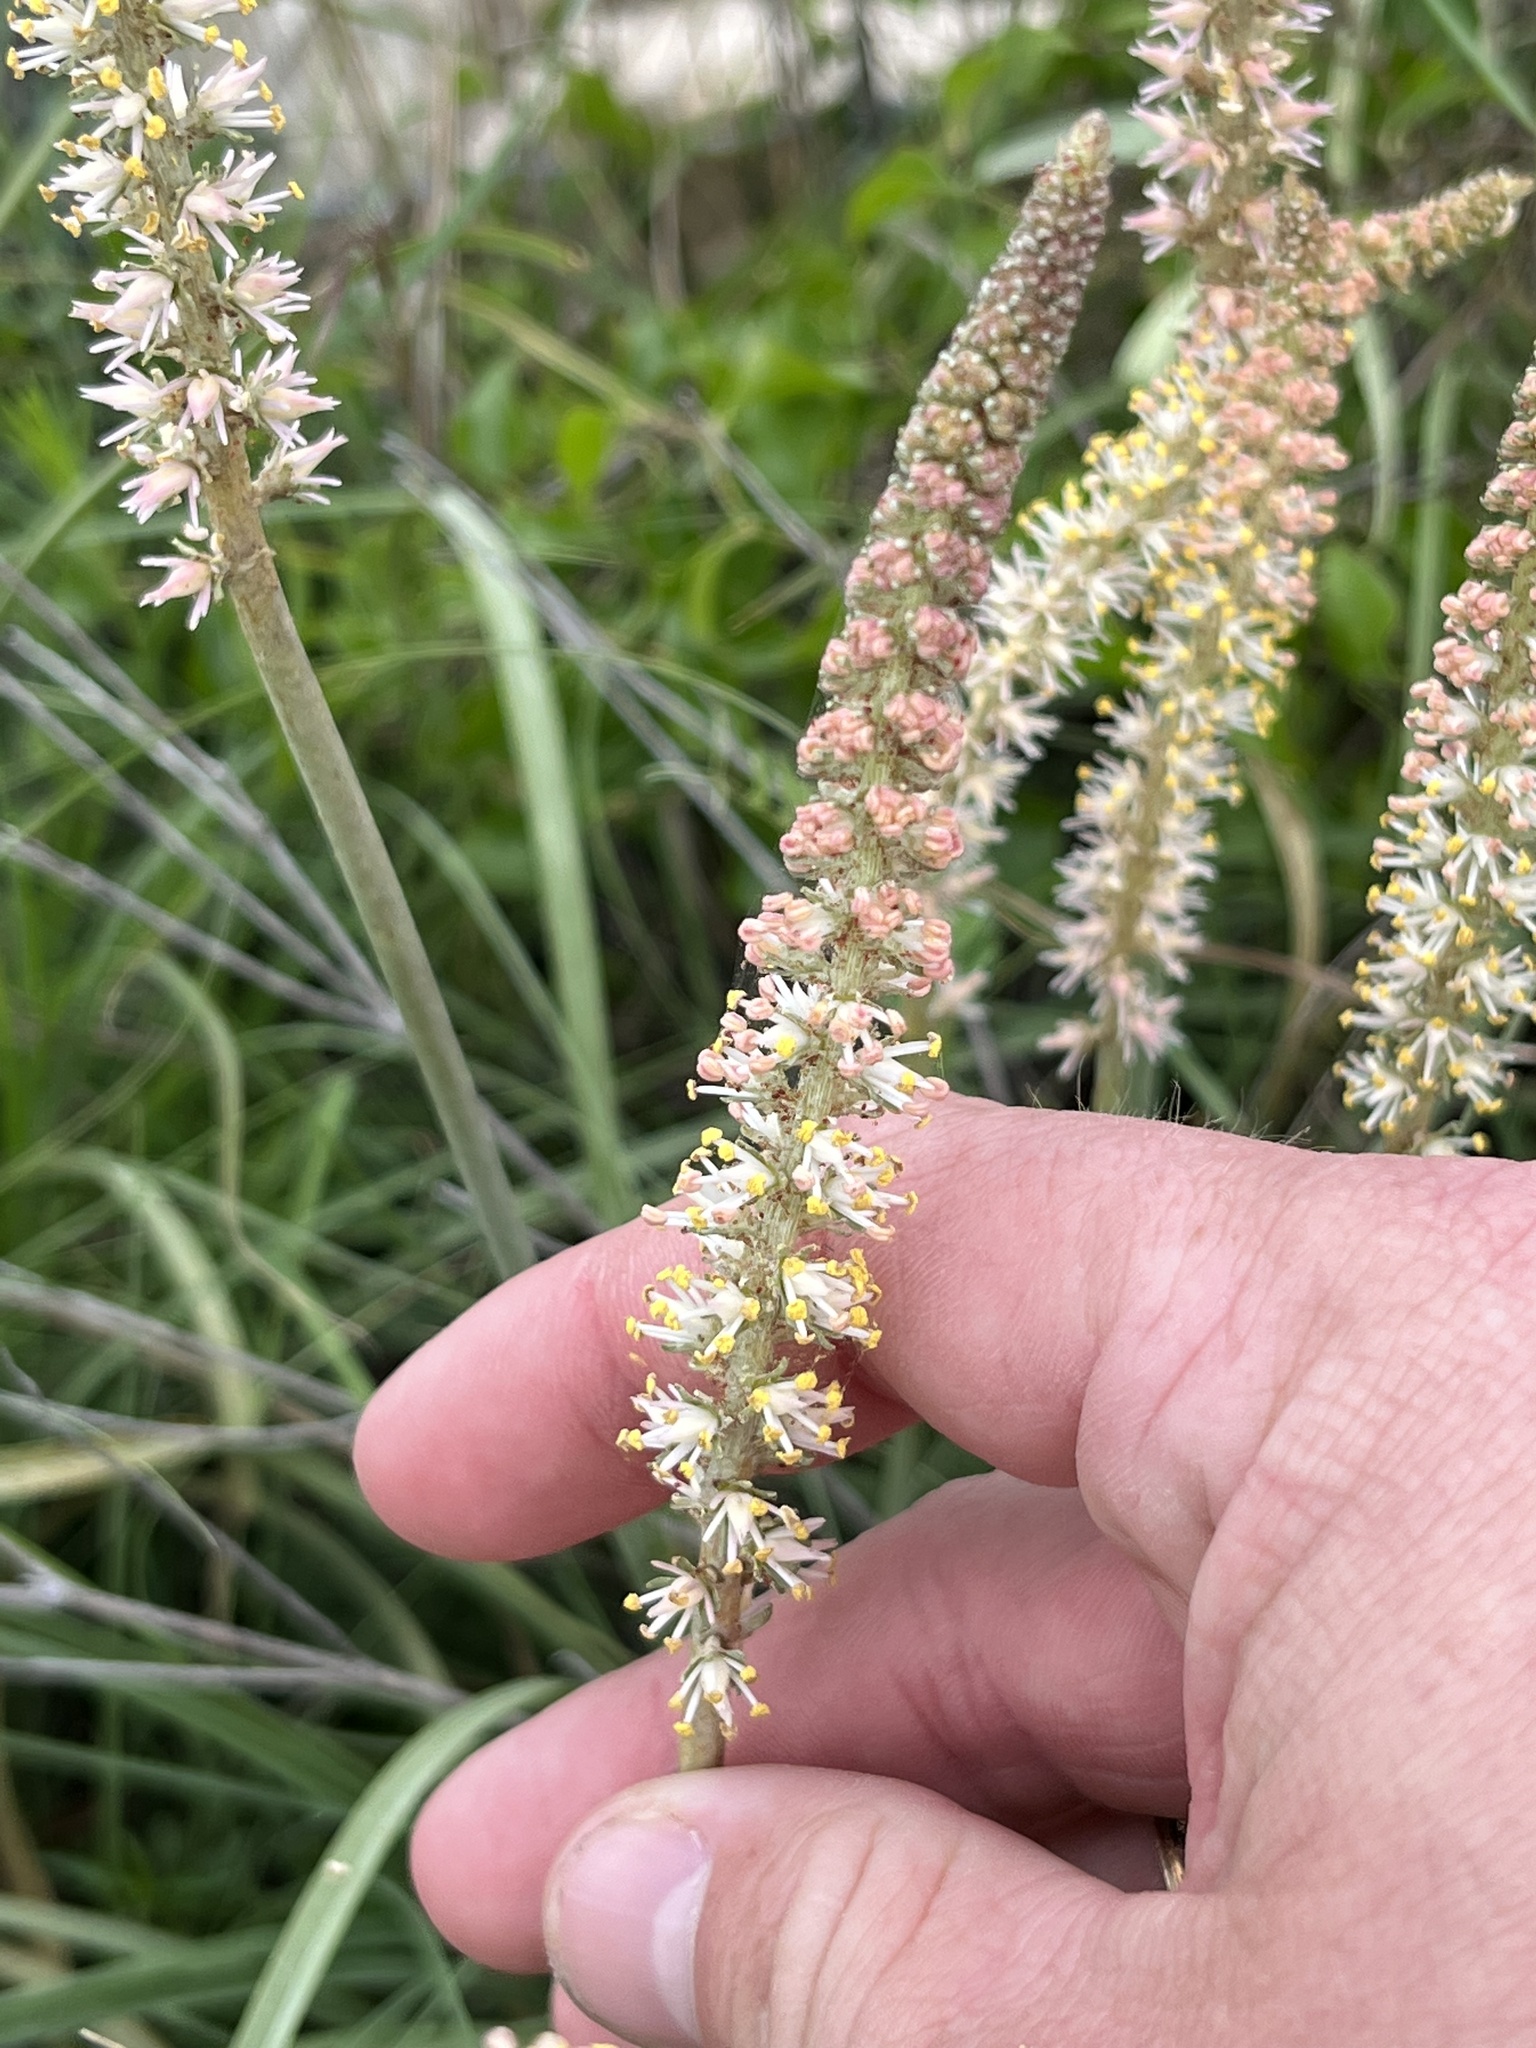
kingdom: Plantae
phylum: Tracheophyta
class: Liliopsida
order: Liliales
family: Melanthiaceae
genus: Schoenocaulon
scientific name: Schoenocaulon texanum
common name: Texas feather-shank
